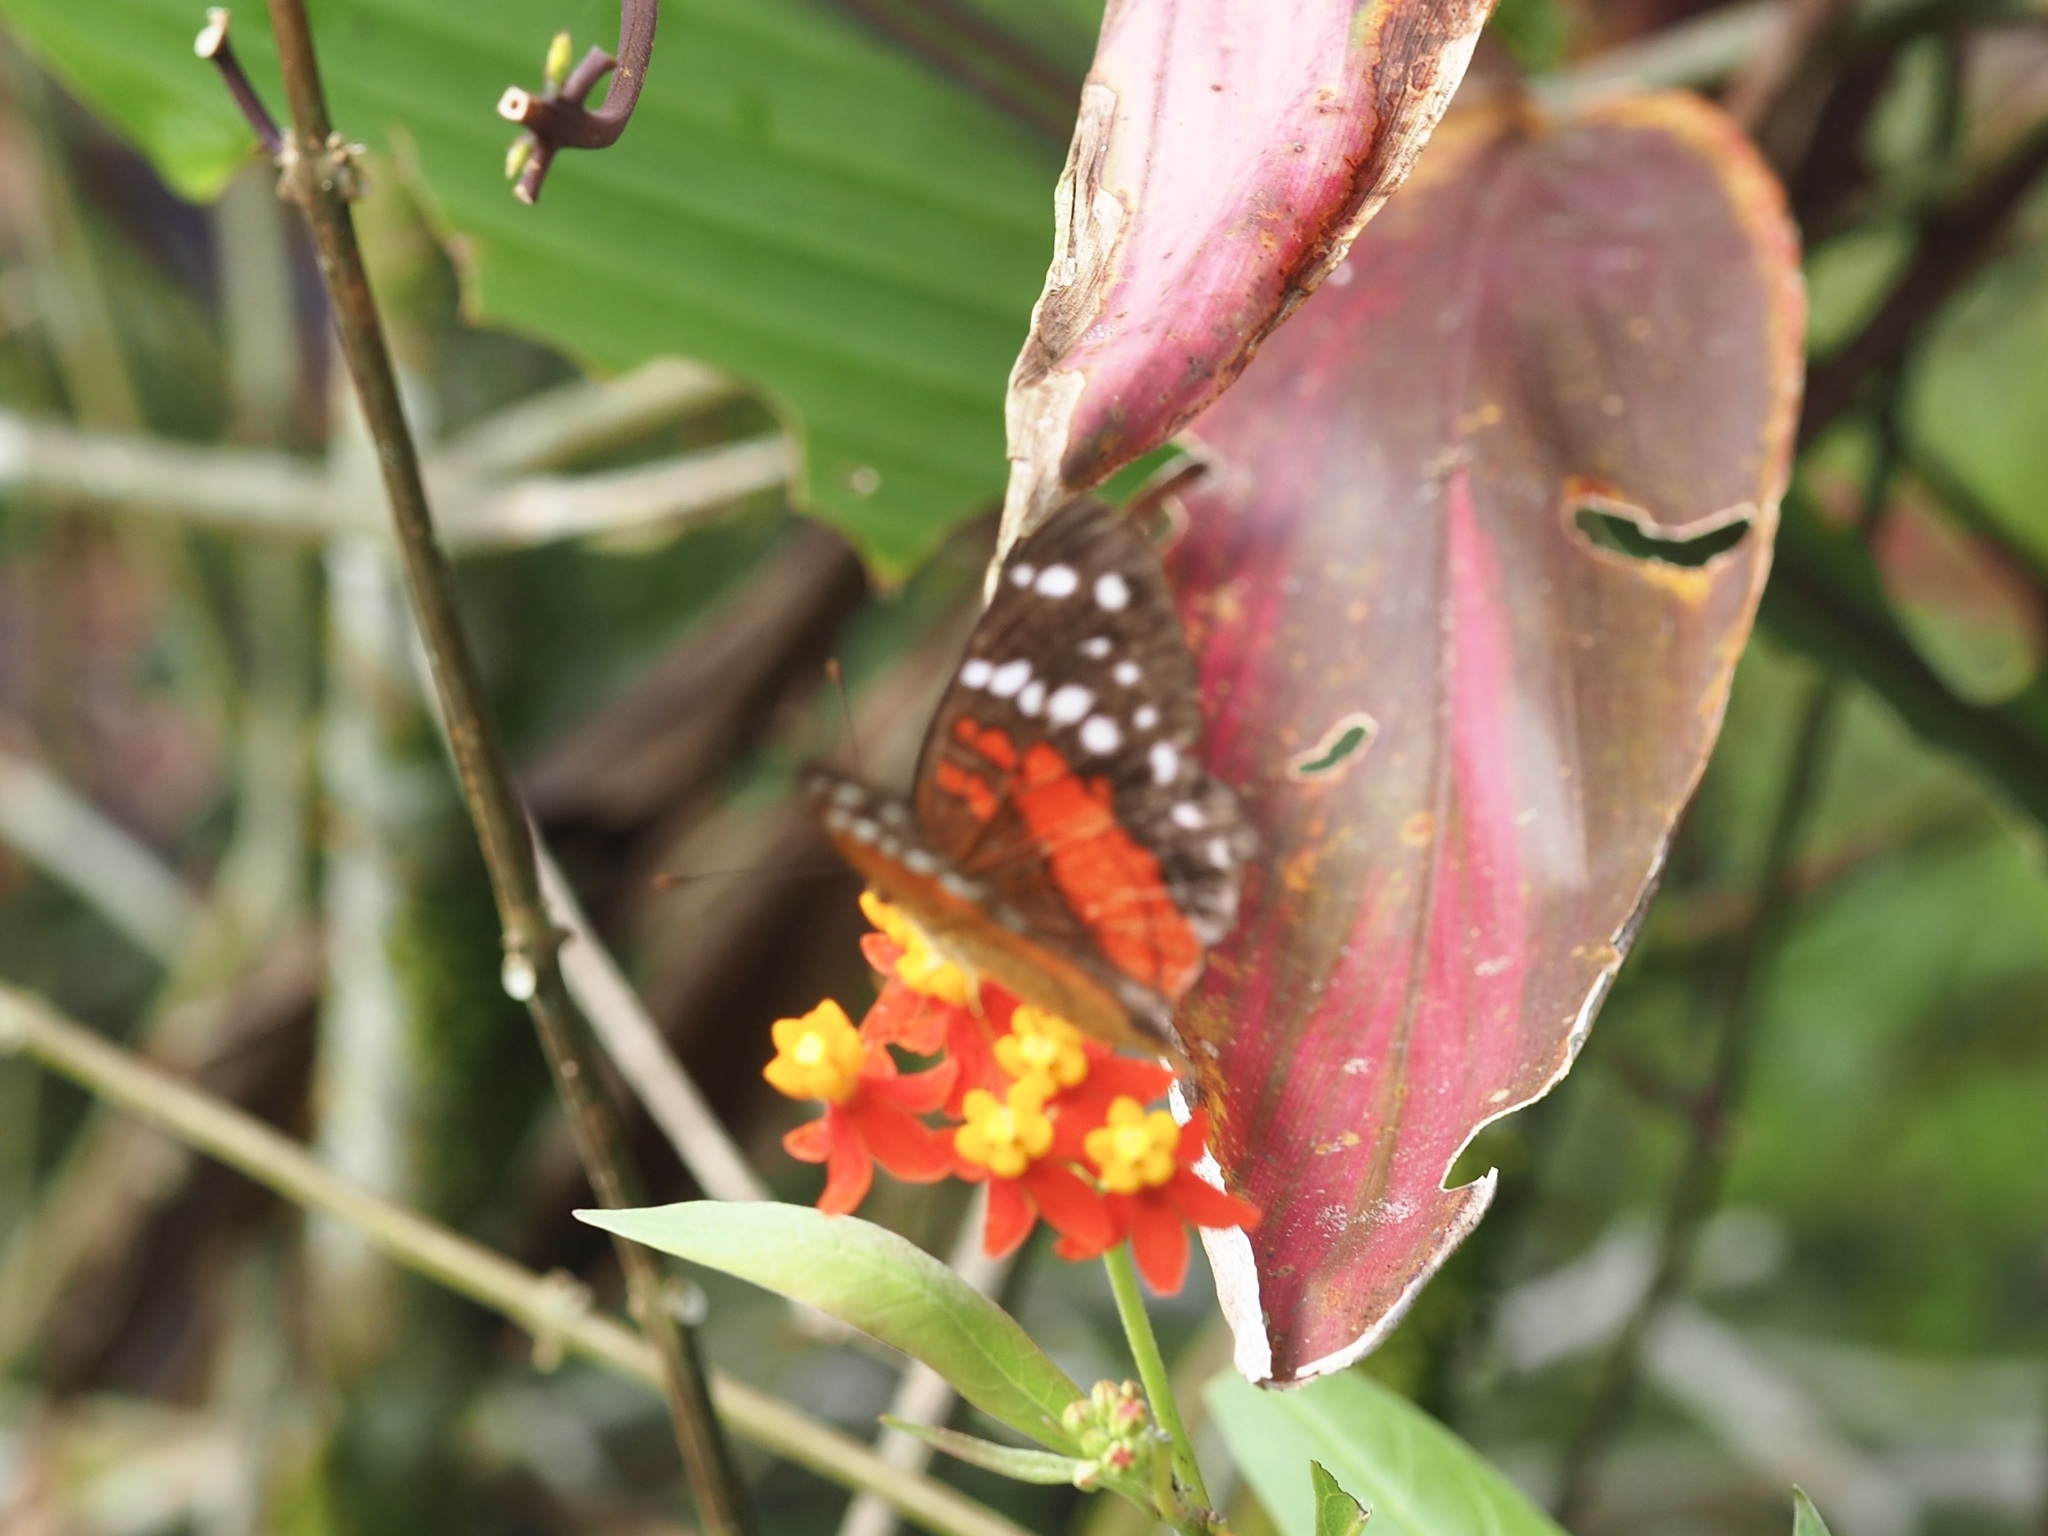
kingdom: Animalia
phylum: Arthropoda
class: Insecta
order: Lepidoptera
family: Nymphalidae
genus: Anartia
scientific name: Anartia amathea
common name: Red peacock
